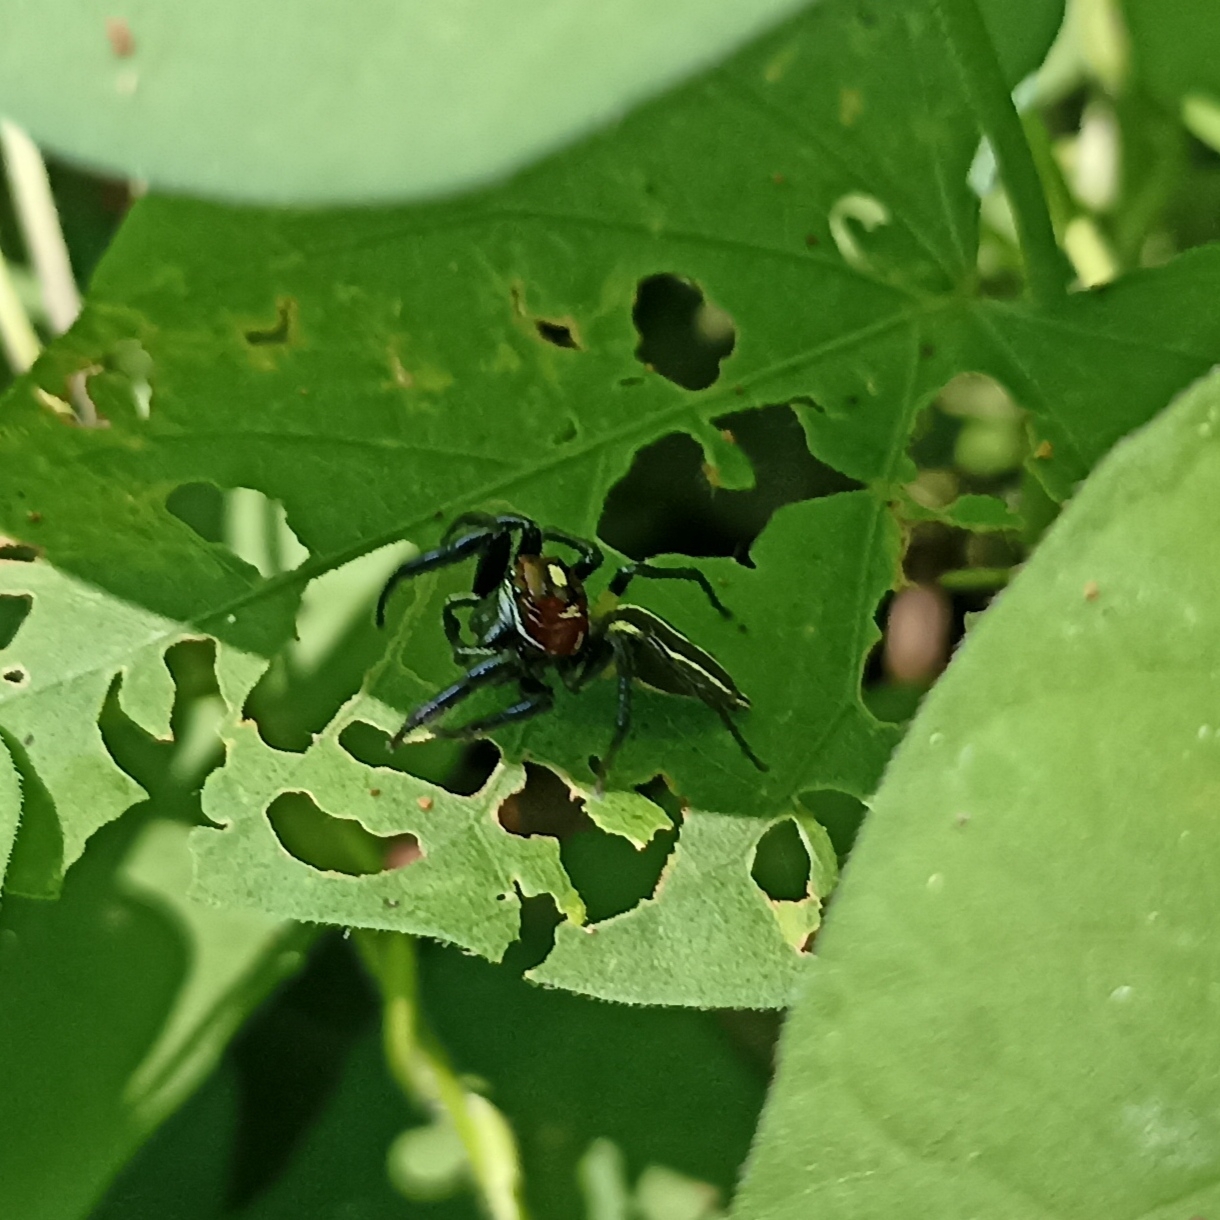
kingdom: Animalia
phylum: Arthropoda
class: Arachnida
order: Araneae
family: Salticidae
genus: Colonus
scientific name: Colonus sylvanus
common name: Jumping spiders
